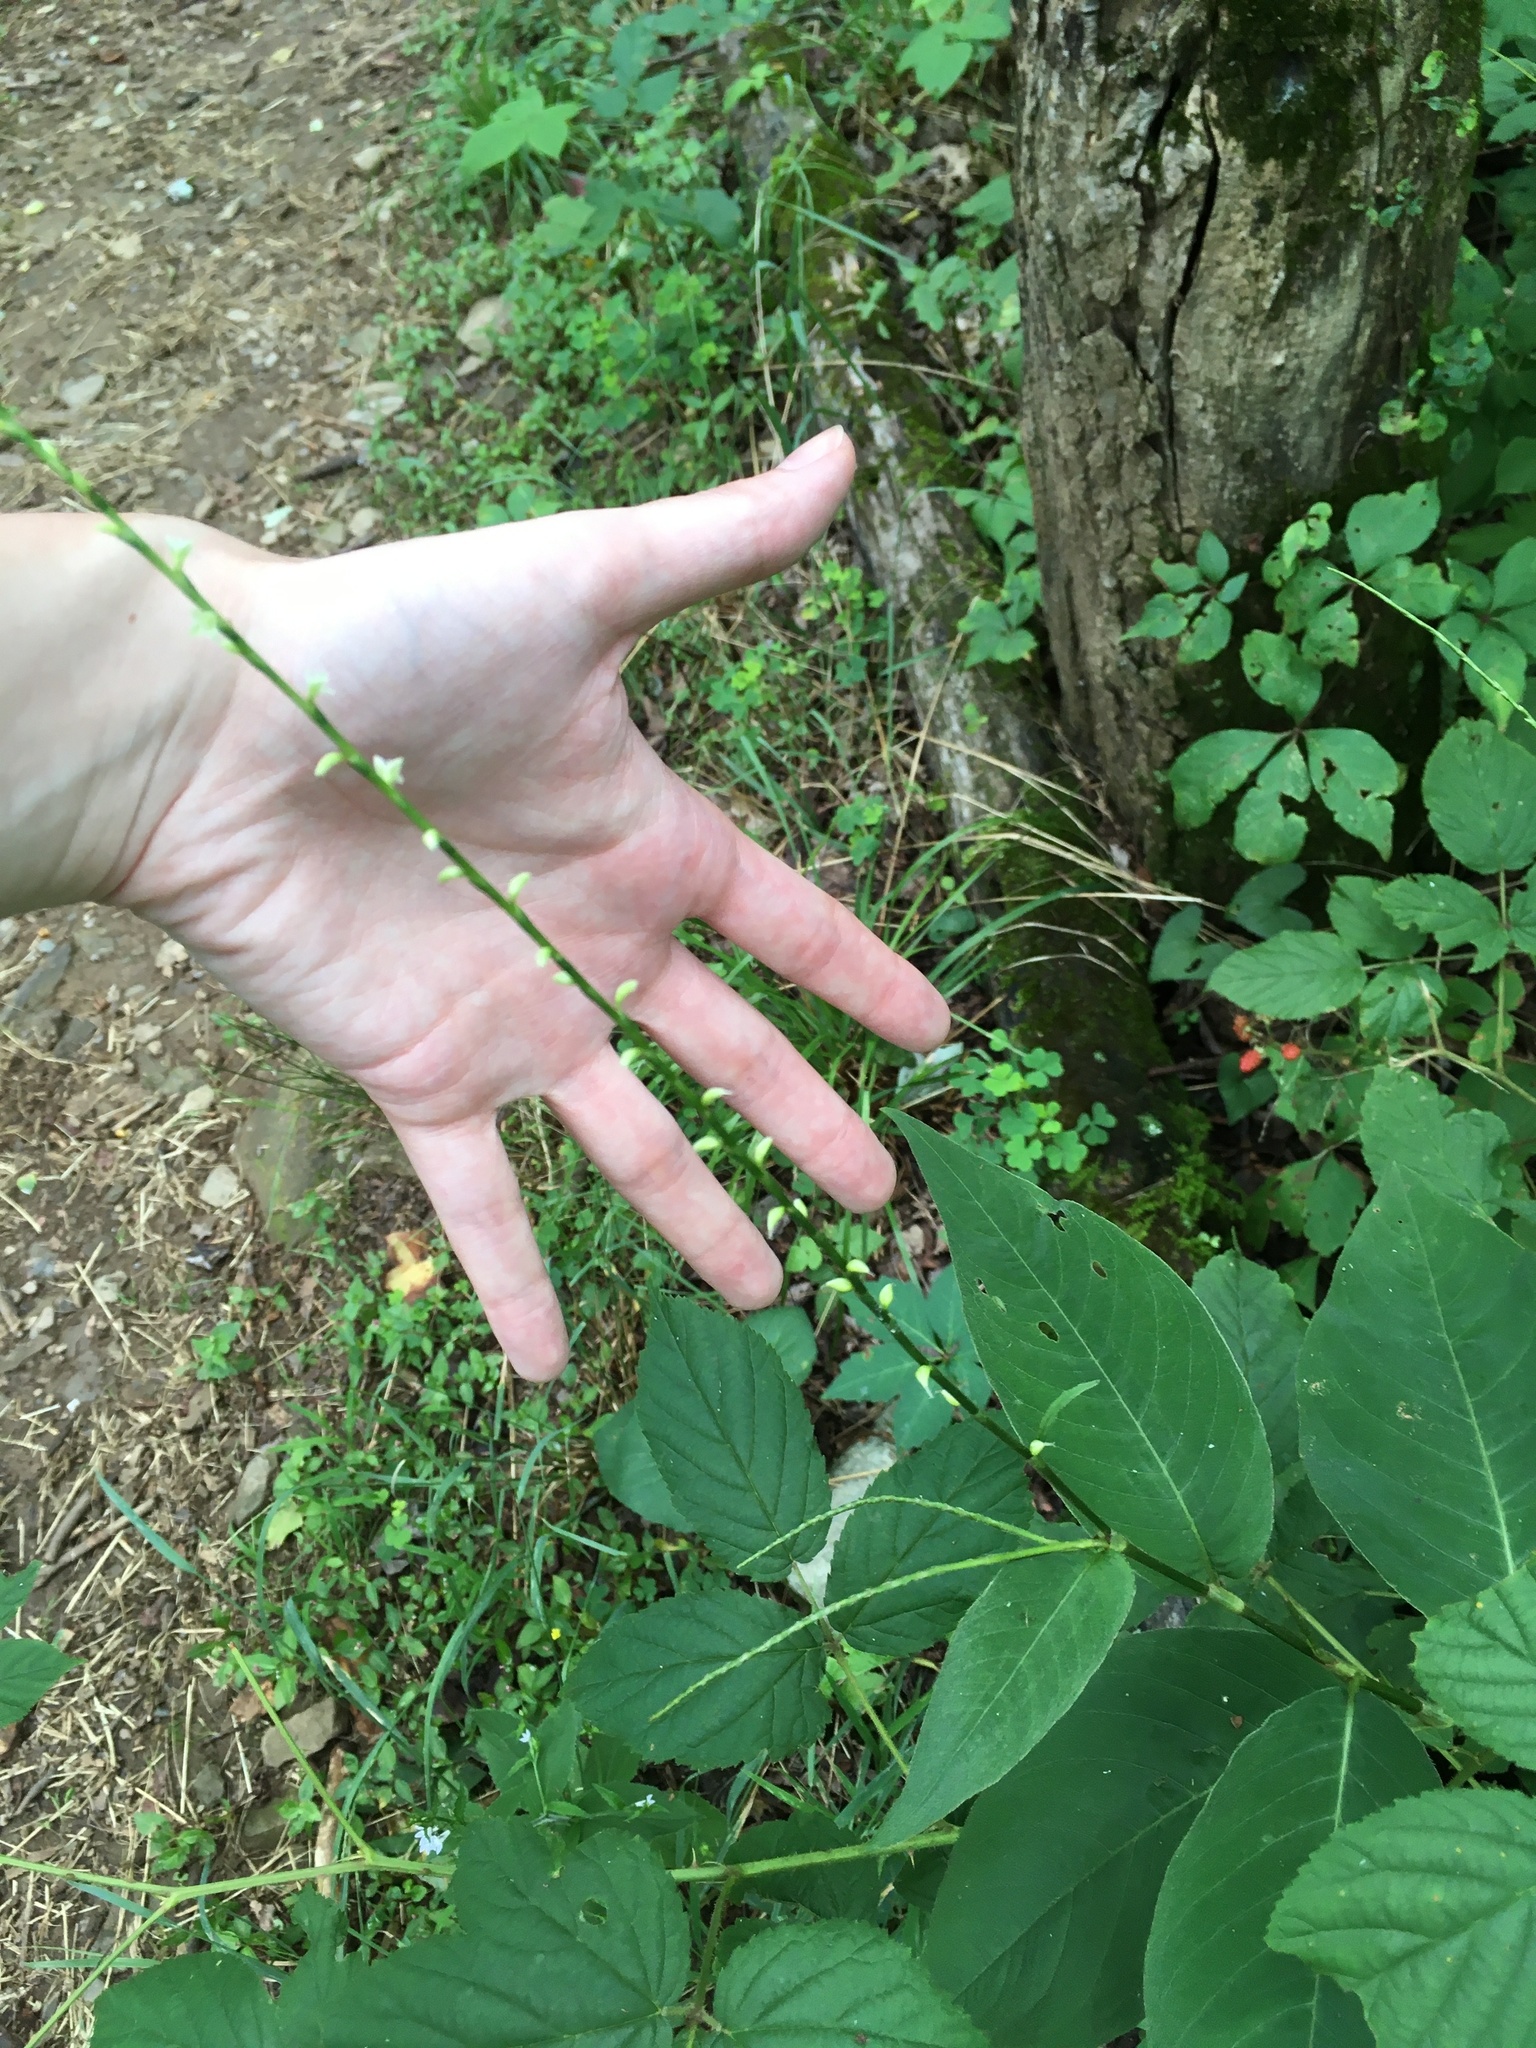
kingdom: Plantae
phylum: Tracheophyta
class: Magnoliopsida
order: Caryophyllales
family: Polygonaceae
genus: Persicaria
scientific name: Persicaria virginiana
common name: Jumpseed
